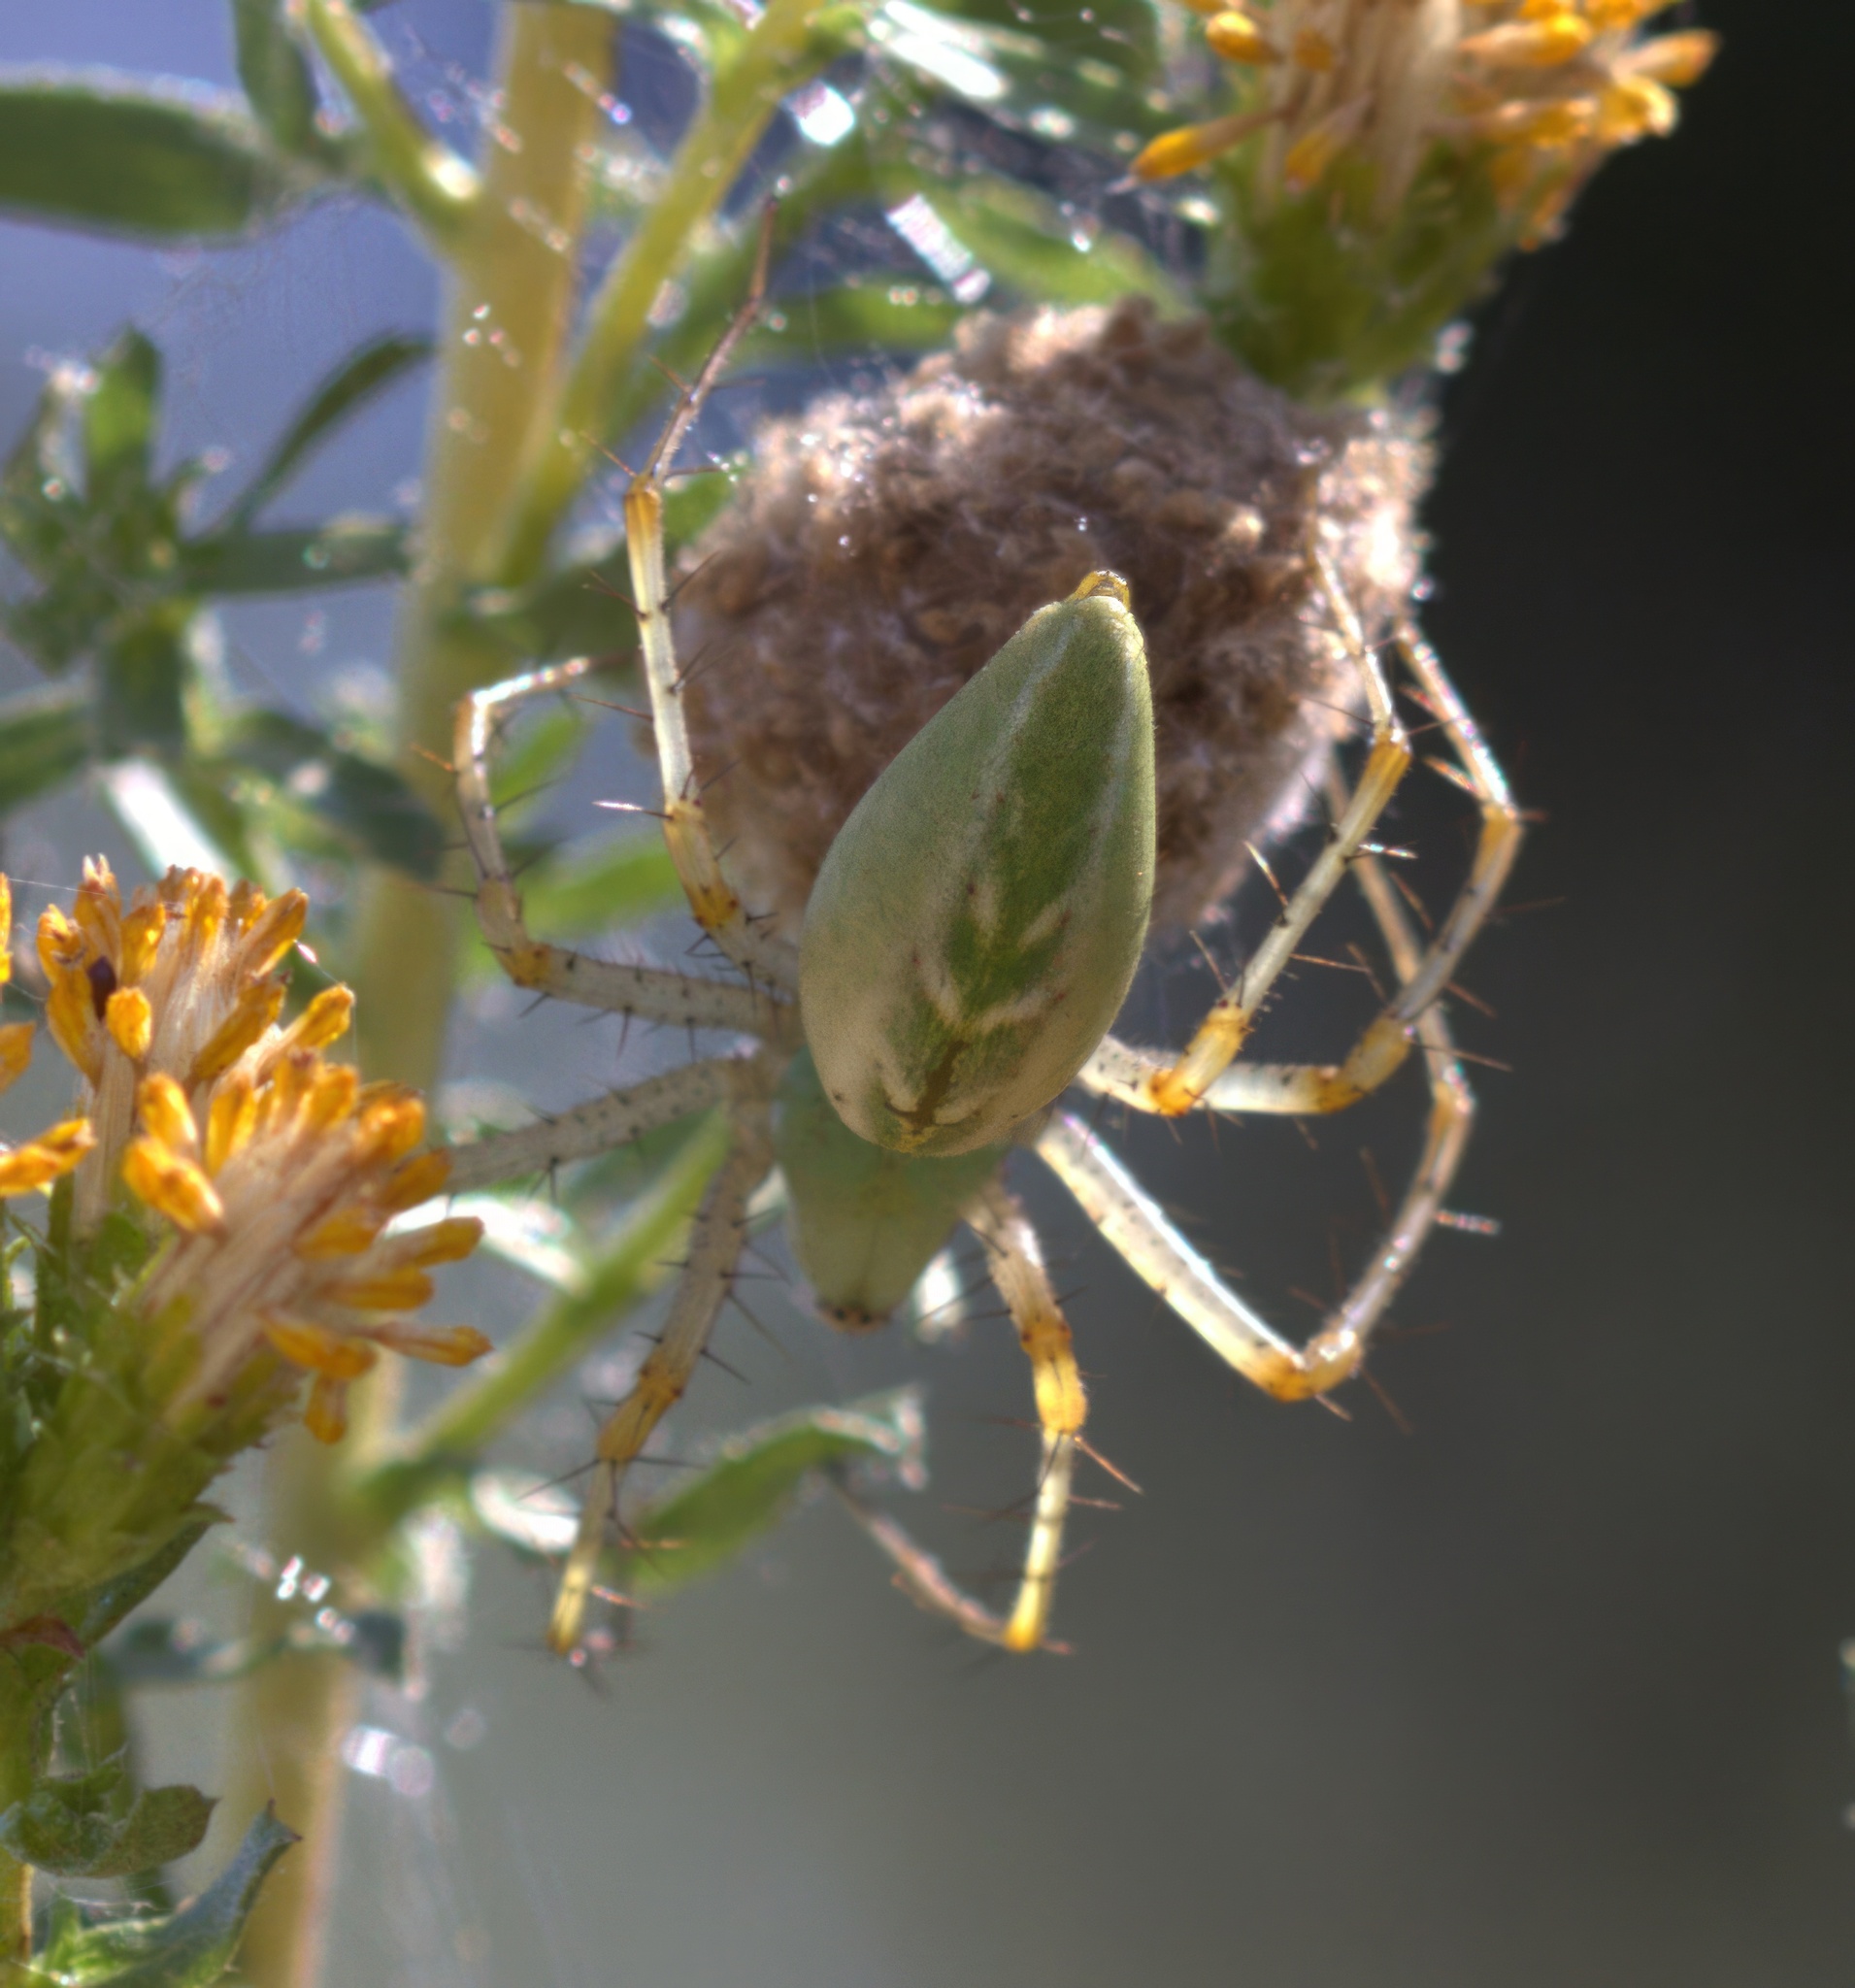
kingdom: Animalia
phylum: Arthropoda
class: Arachnida
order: Araneae
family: Oxyopidae
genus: Peucetia
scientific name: Peucetia viridans
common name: Lynx spiders
